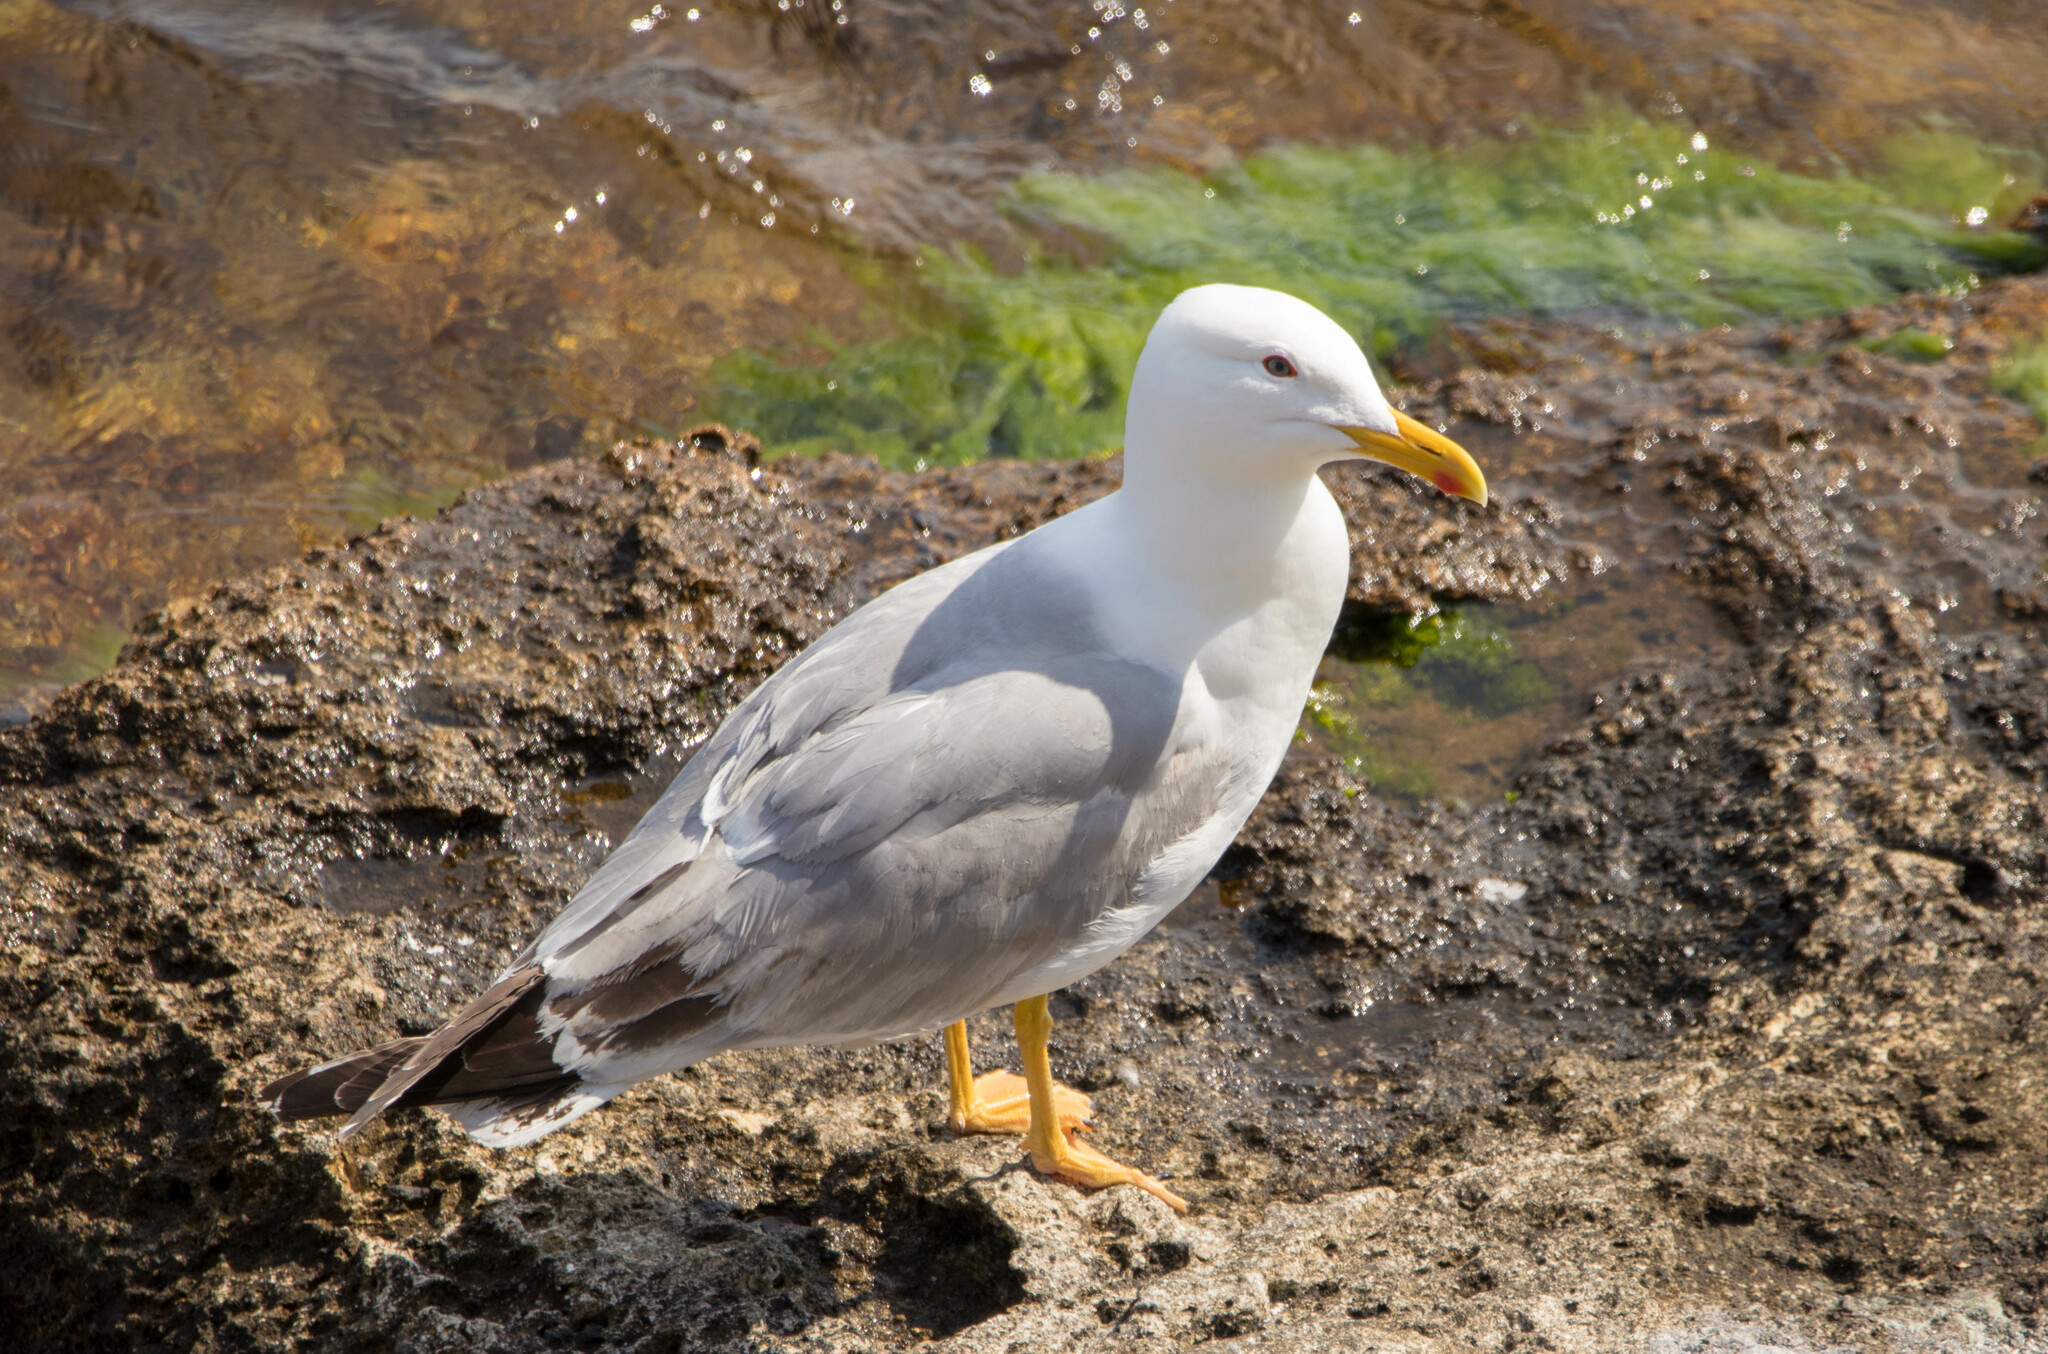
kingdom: Animalia
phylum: Chordata
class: Aves
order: Charadriiformes
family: Laridae
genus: Larus
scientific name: Larus michahellis
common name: Yellow-legged gull
